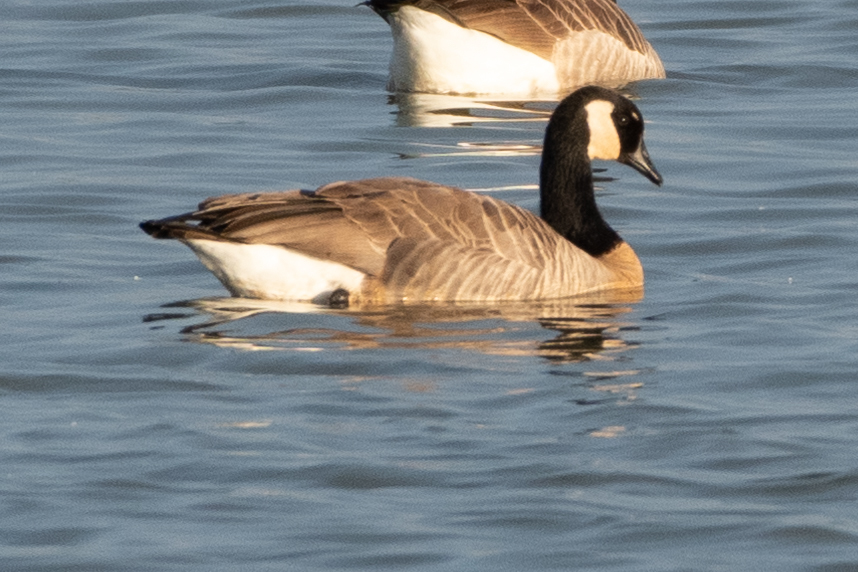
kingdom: Animalia
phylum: Chordata
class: Aves
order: Anseriformes
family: Anatidae
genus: Branta
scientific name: Branta canadensis
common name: Canada goose
